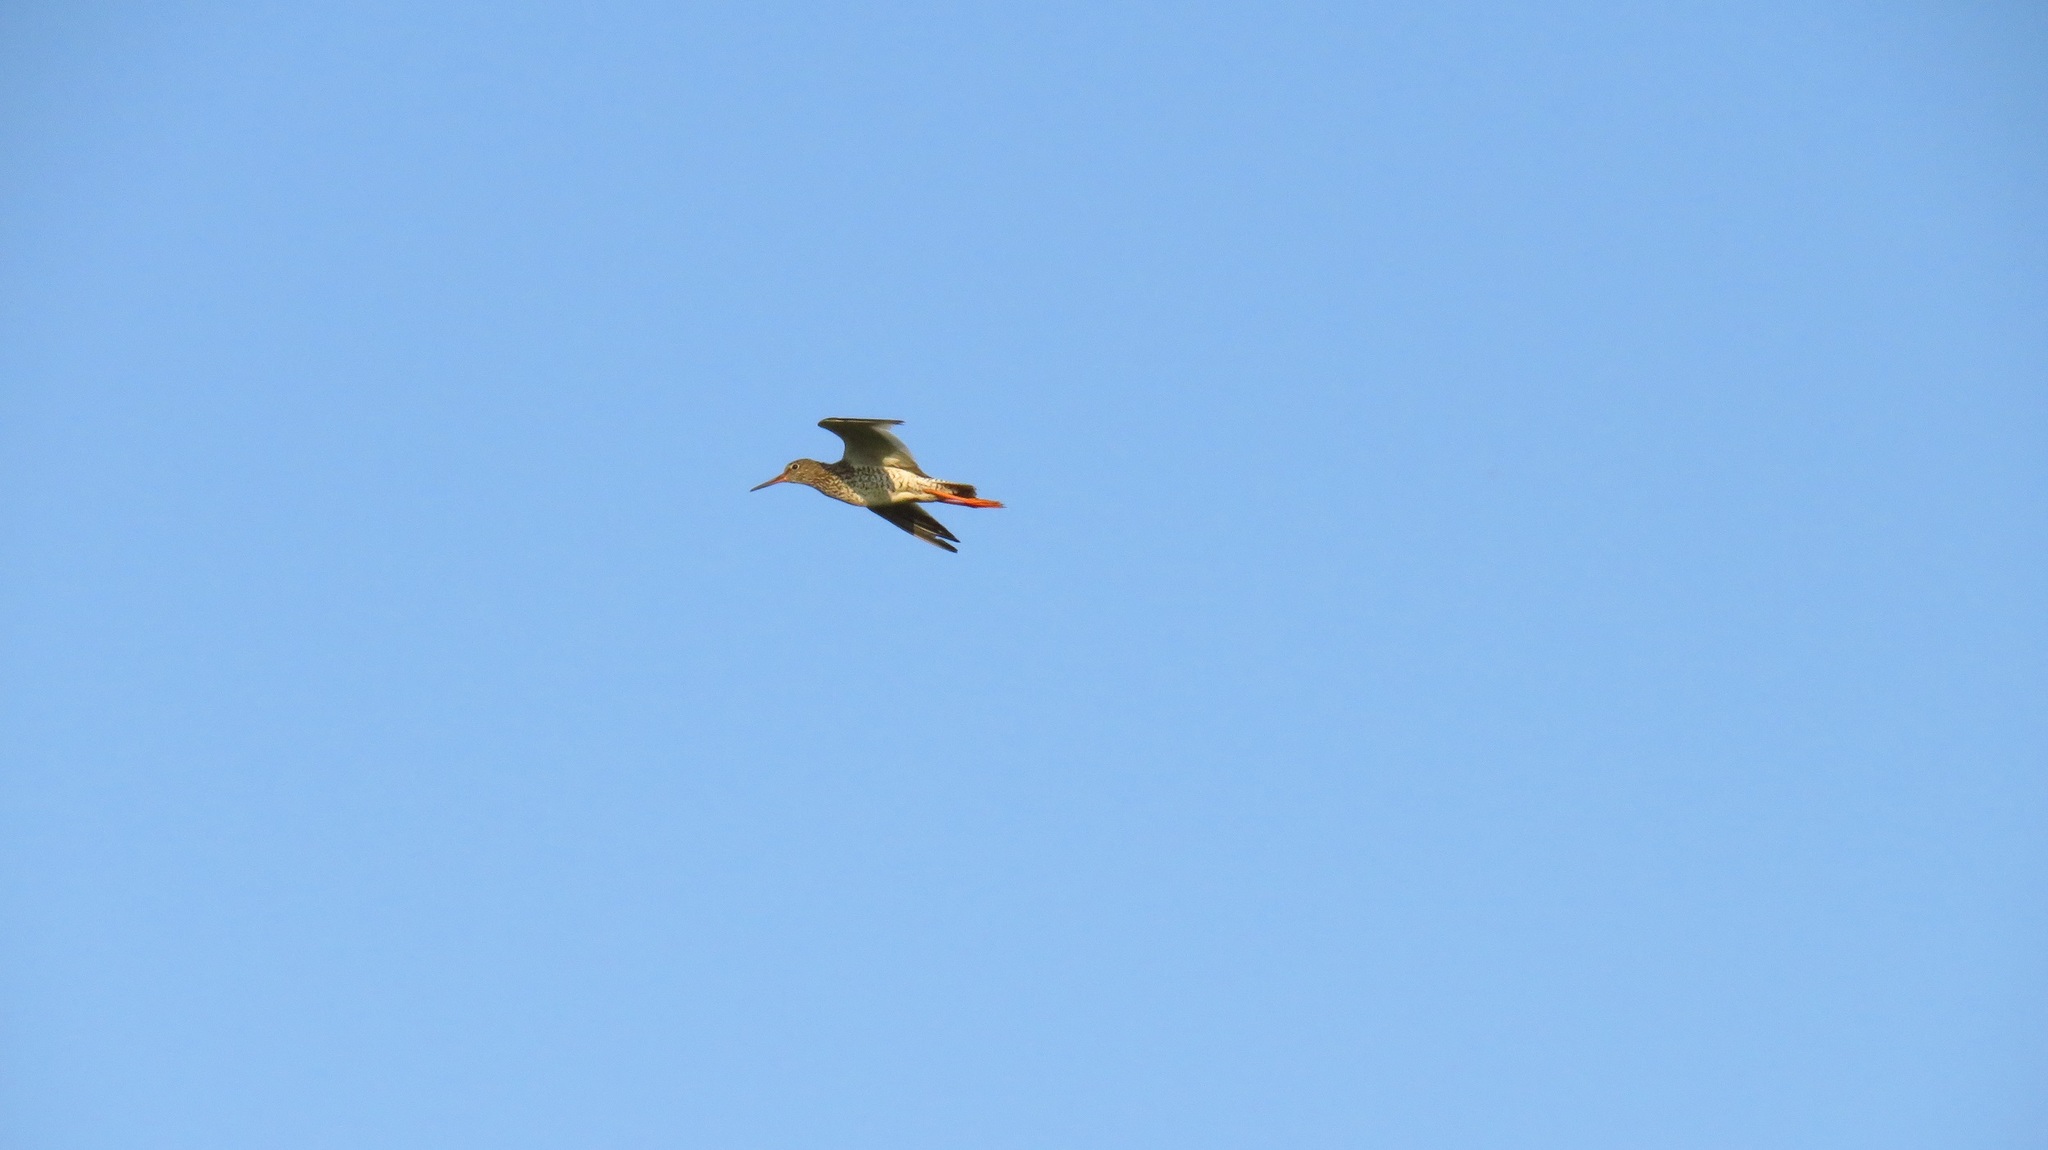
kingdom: Animalia
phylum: Chordata
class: Aves
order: Charadriiformes
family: Scolopacidae
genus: Tringa
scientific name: Tringa totanus
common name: Common redshank
